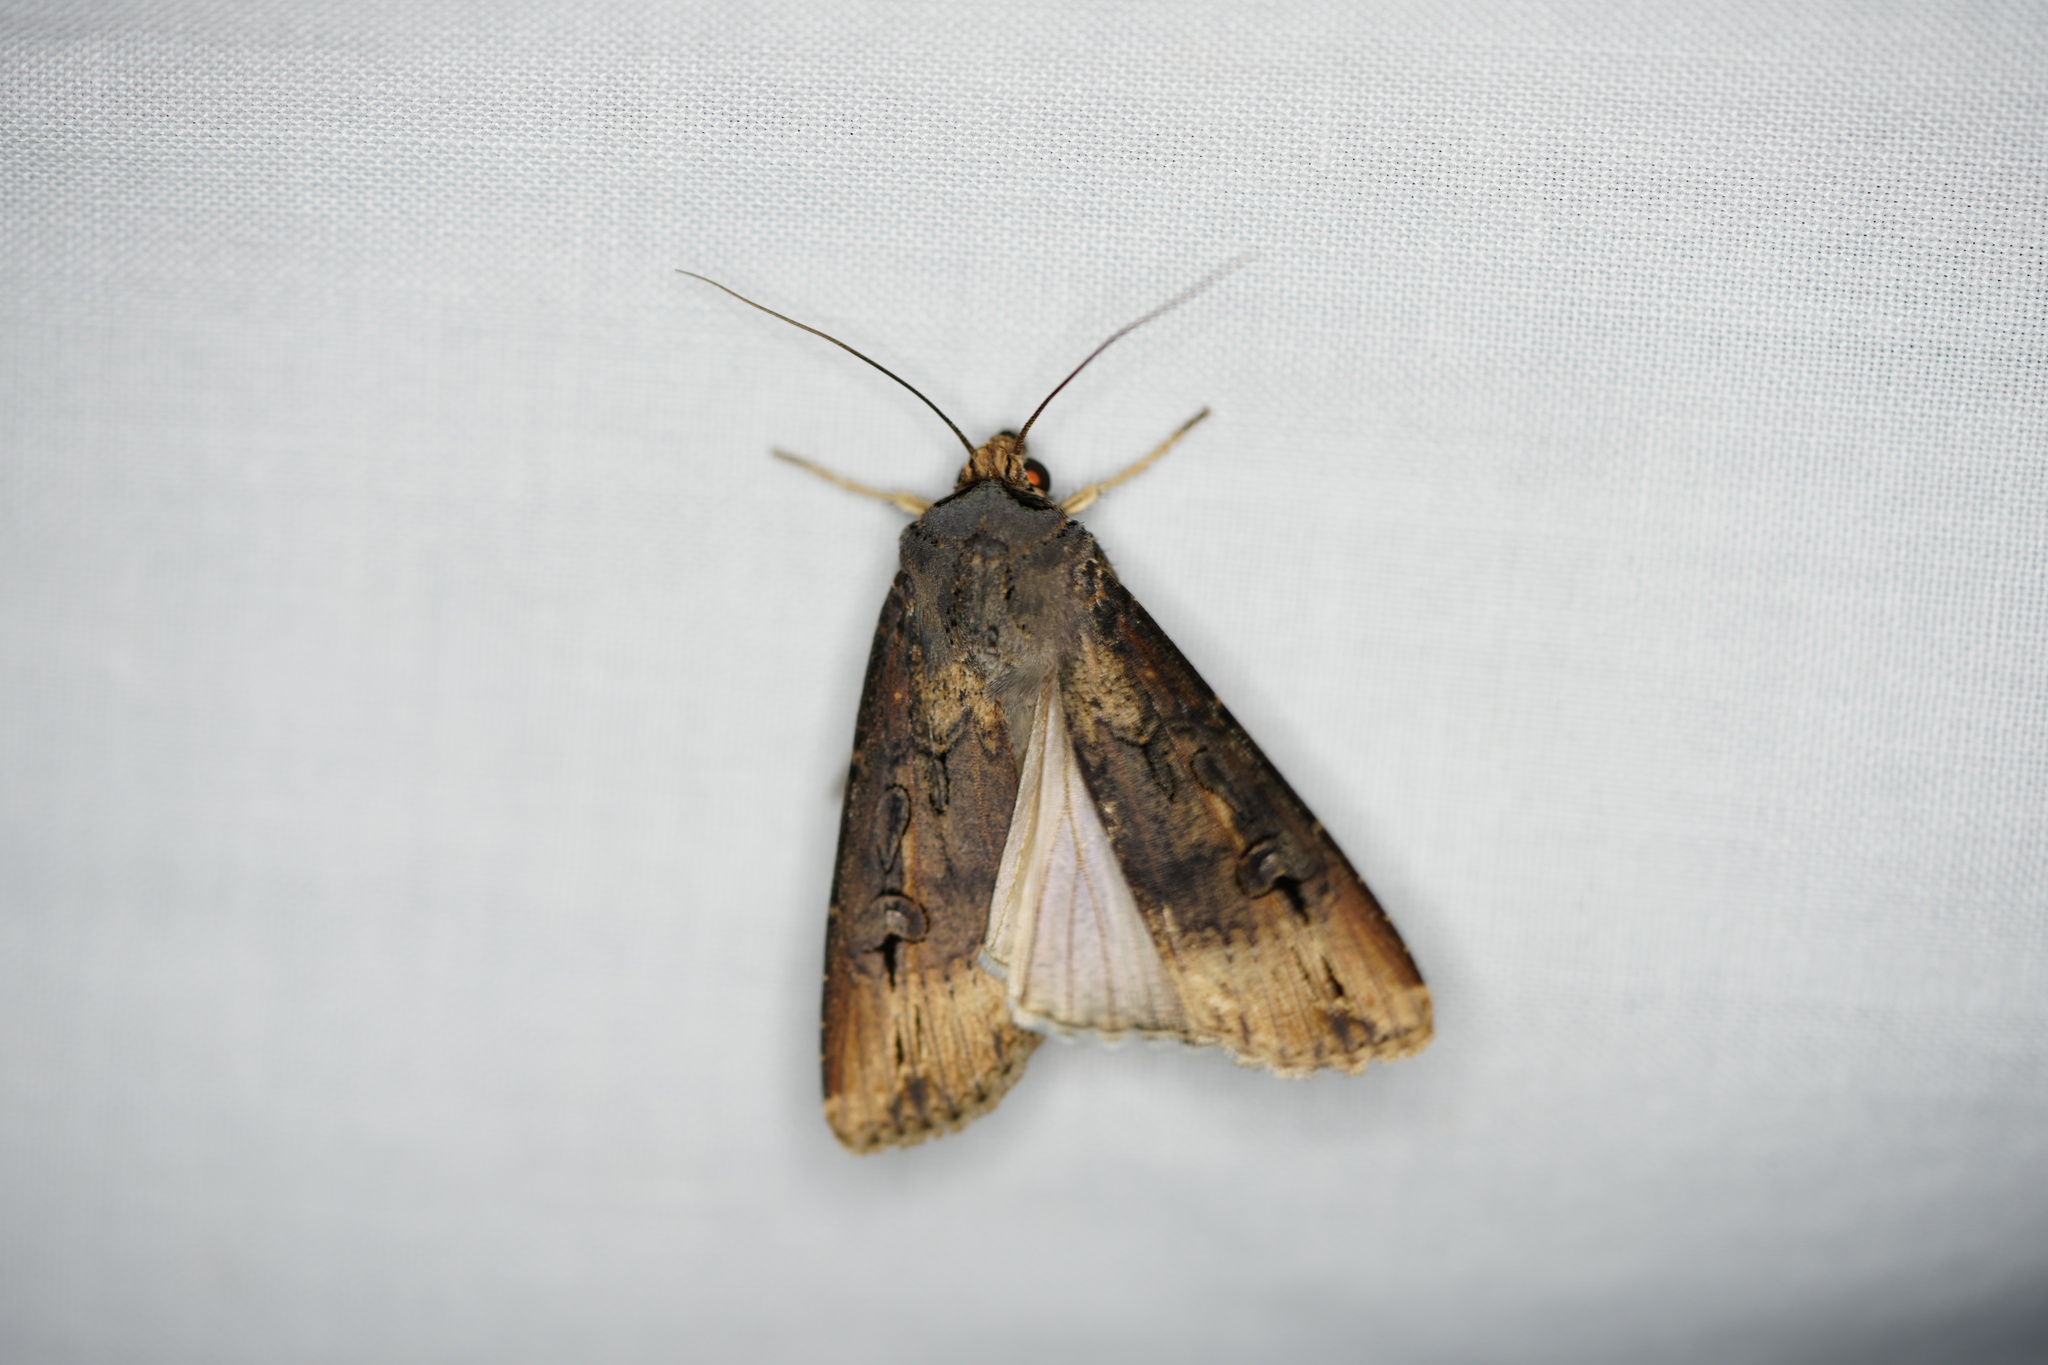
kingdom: Animalia
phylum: Arthropoda
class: Insecta
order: Lepidoptera
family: Noctuidae
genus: Agrotis
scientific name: Agrotis ipsilon
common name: Dark sword-grass
